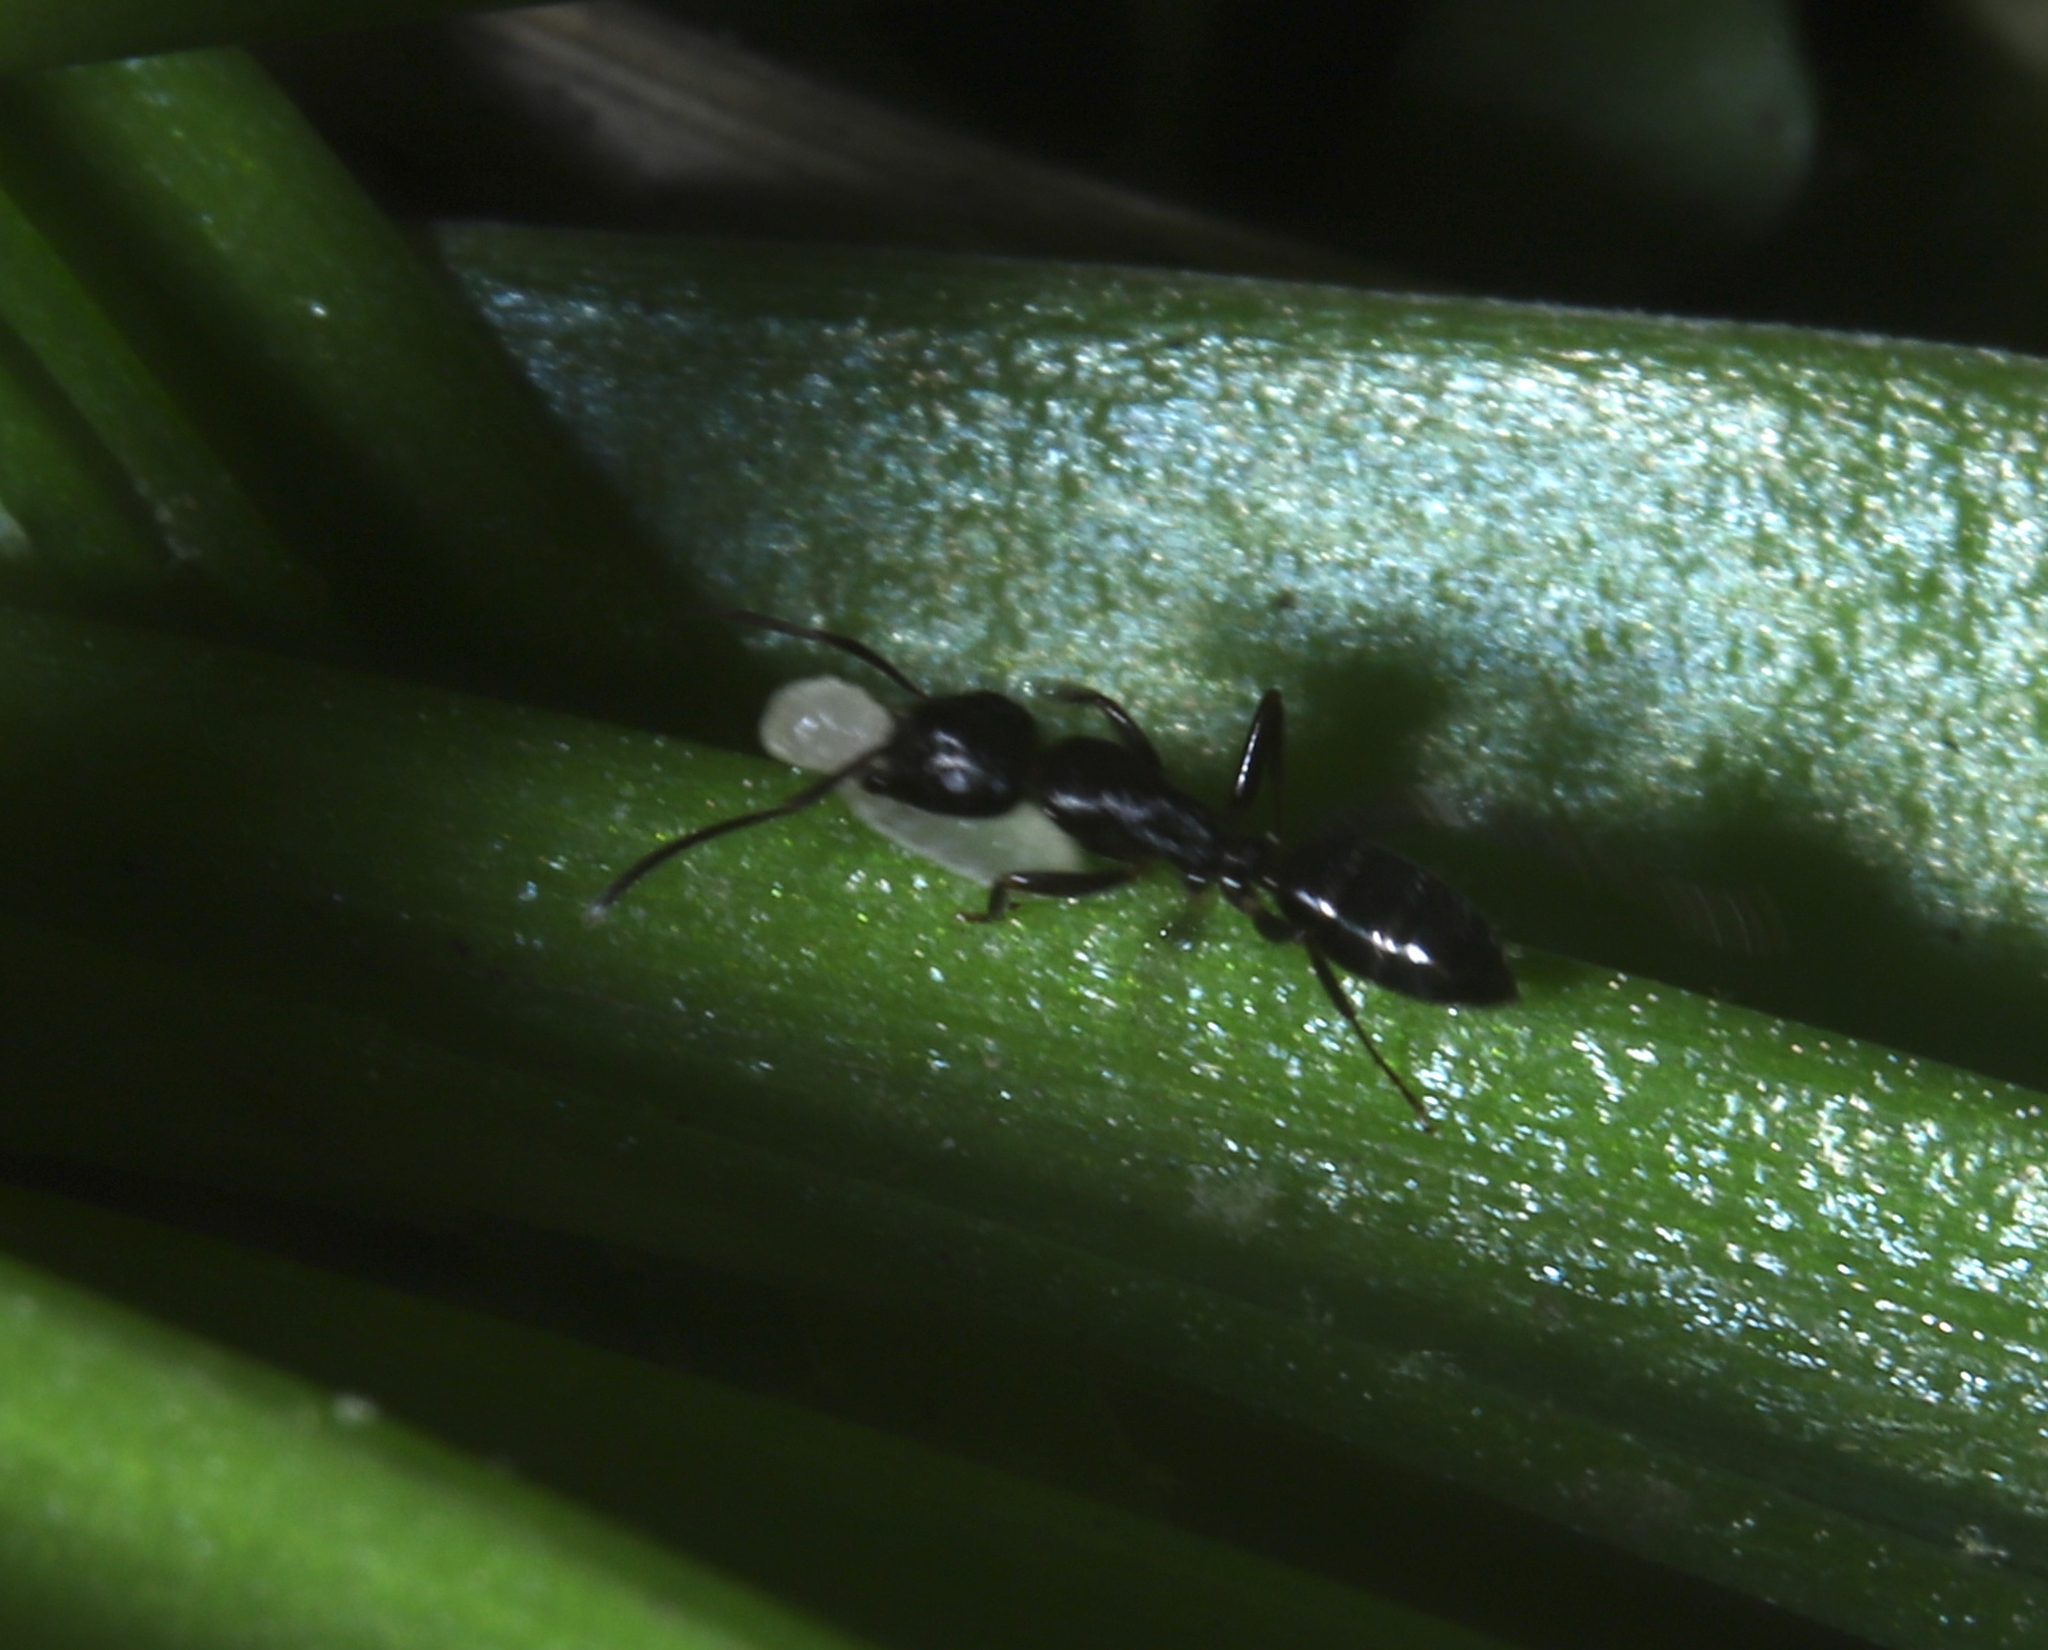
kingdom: Animalia
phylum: Arthropoda
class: Insecta
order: Hymenoptera
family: Formicidae
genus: Camponotus
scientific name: Camponotus nearcticus
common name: Smaller carpenter ant
